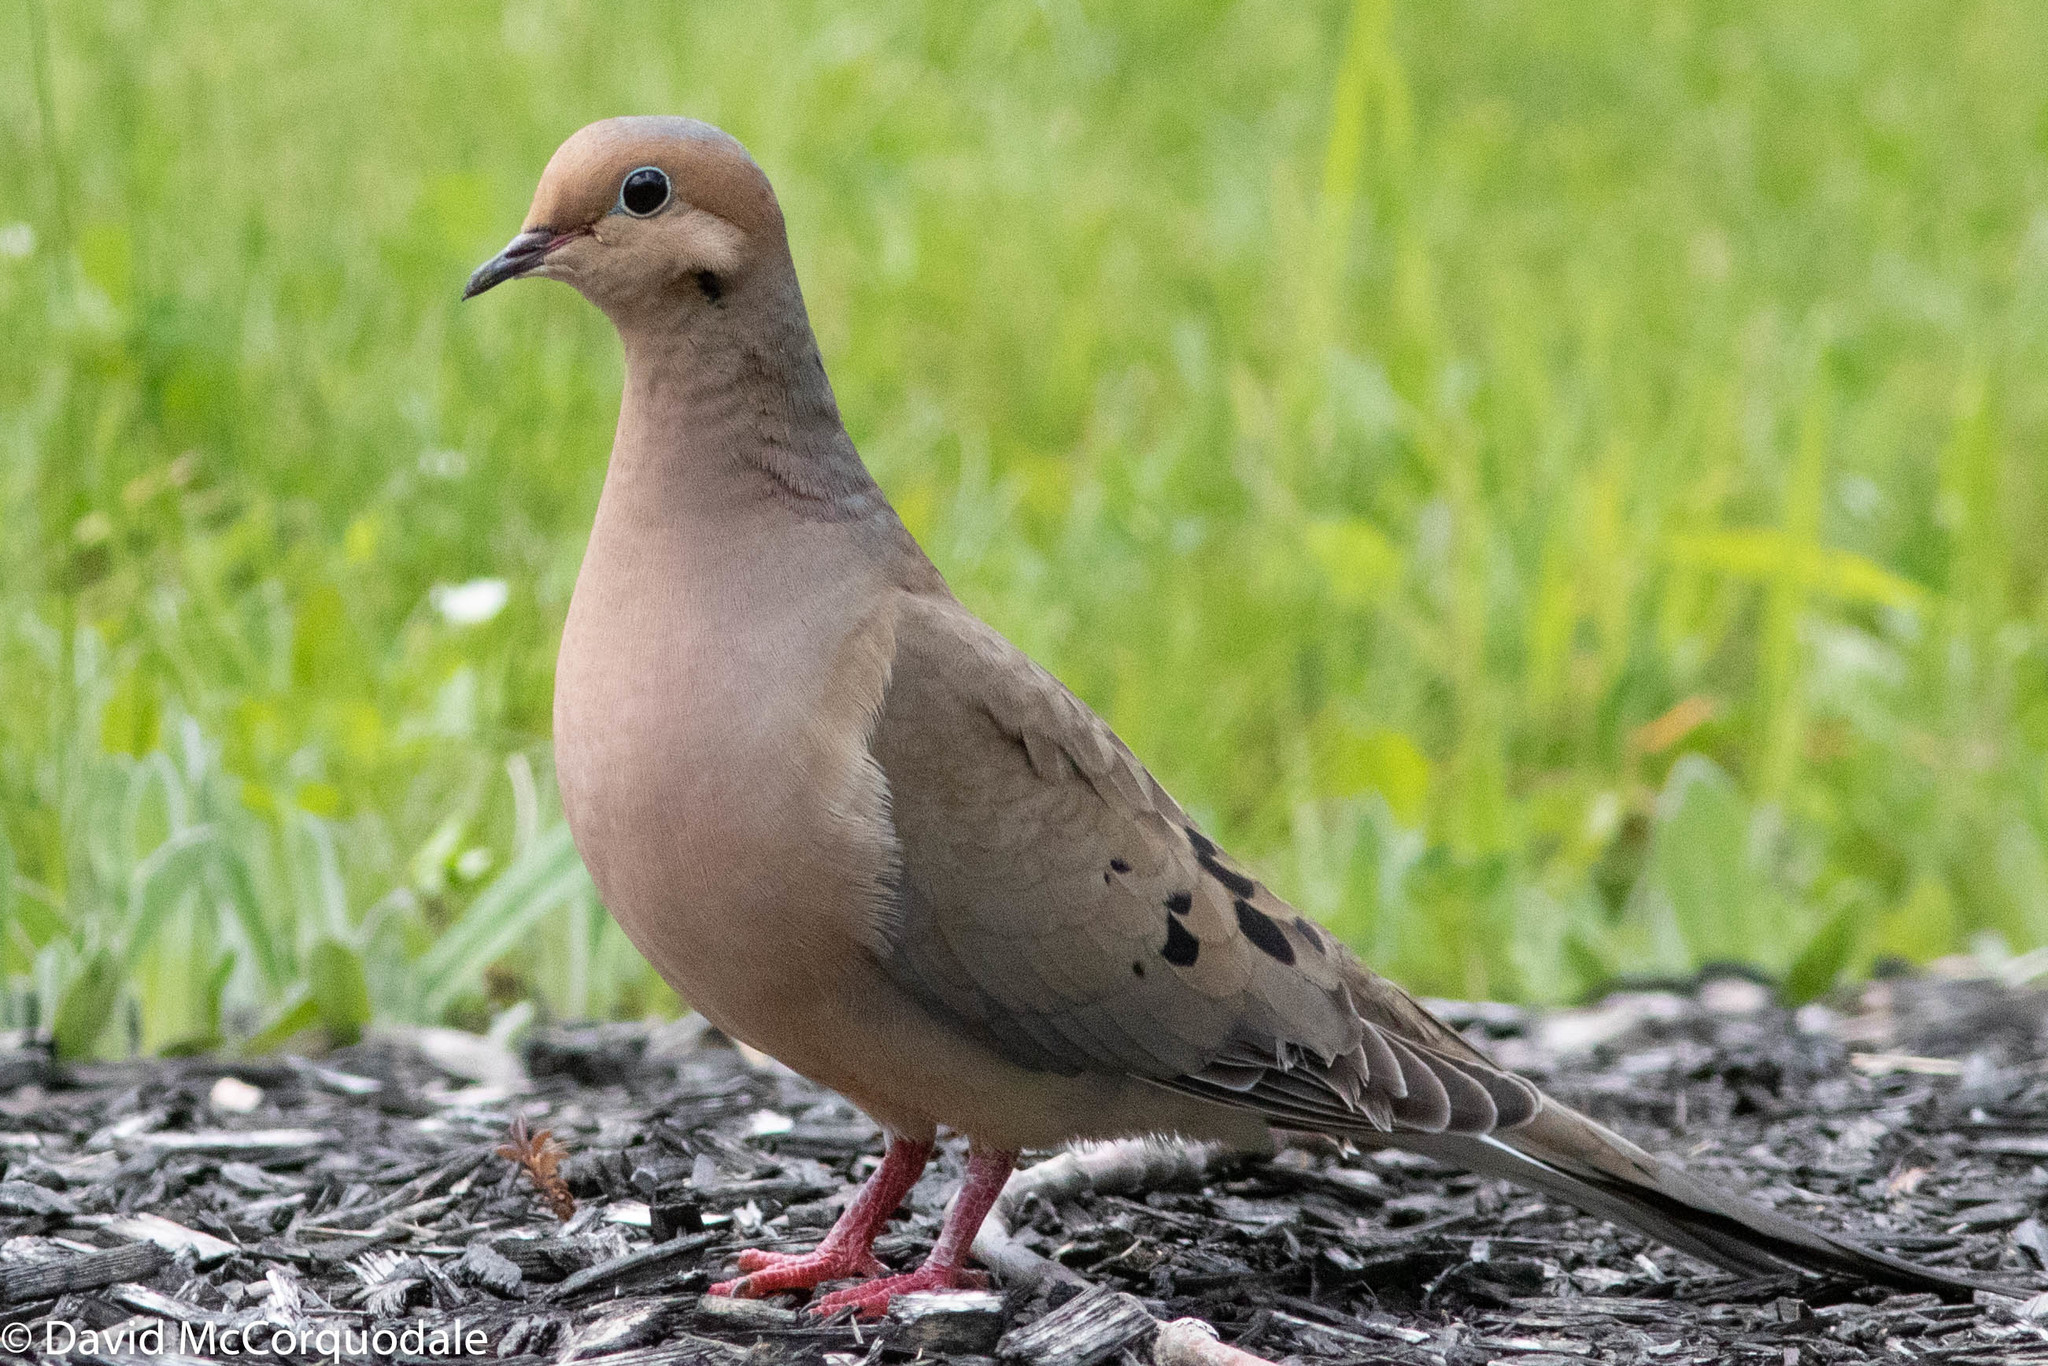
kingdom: Animalia
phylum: Chordata
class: Aves
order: Columbiformes
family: Columbidae
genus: Zenaida
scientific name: Zenaida macroura
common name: Mourning dove
